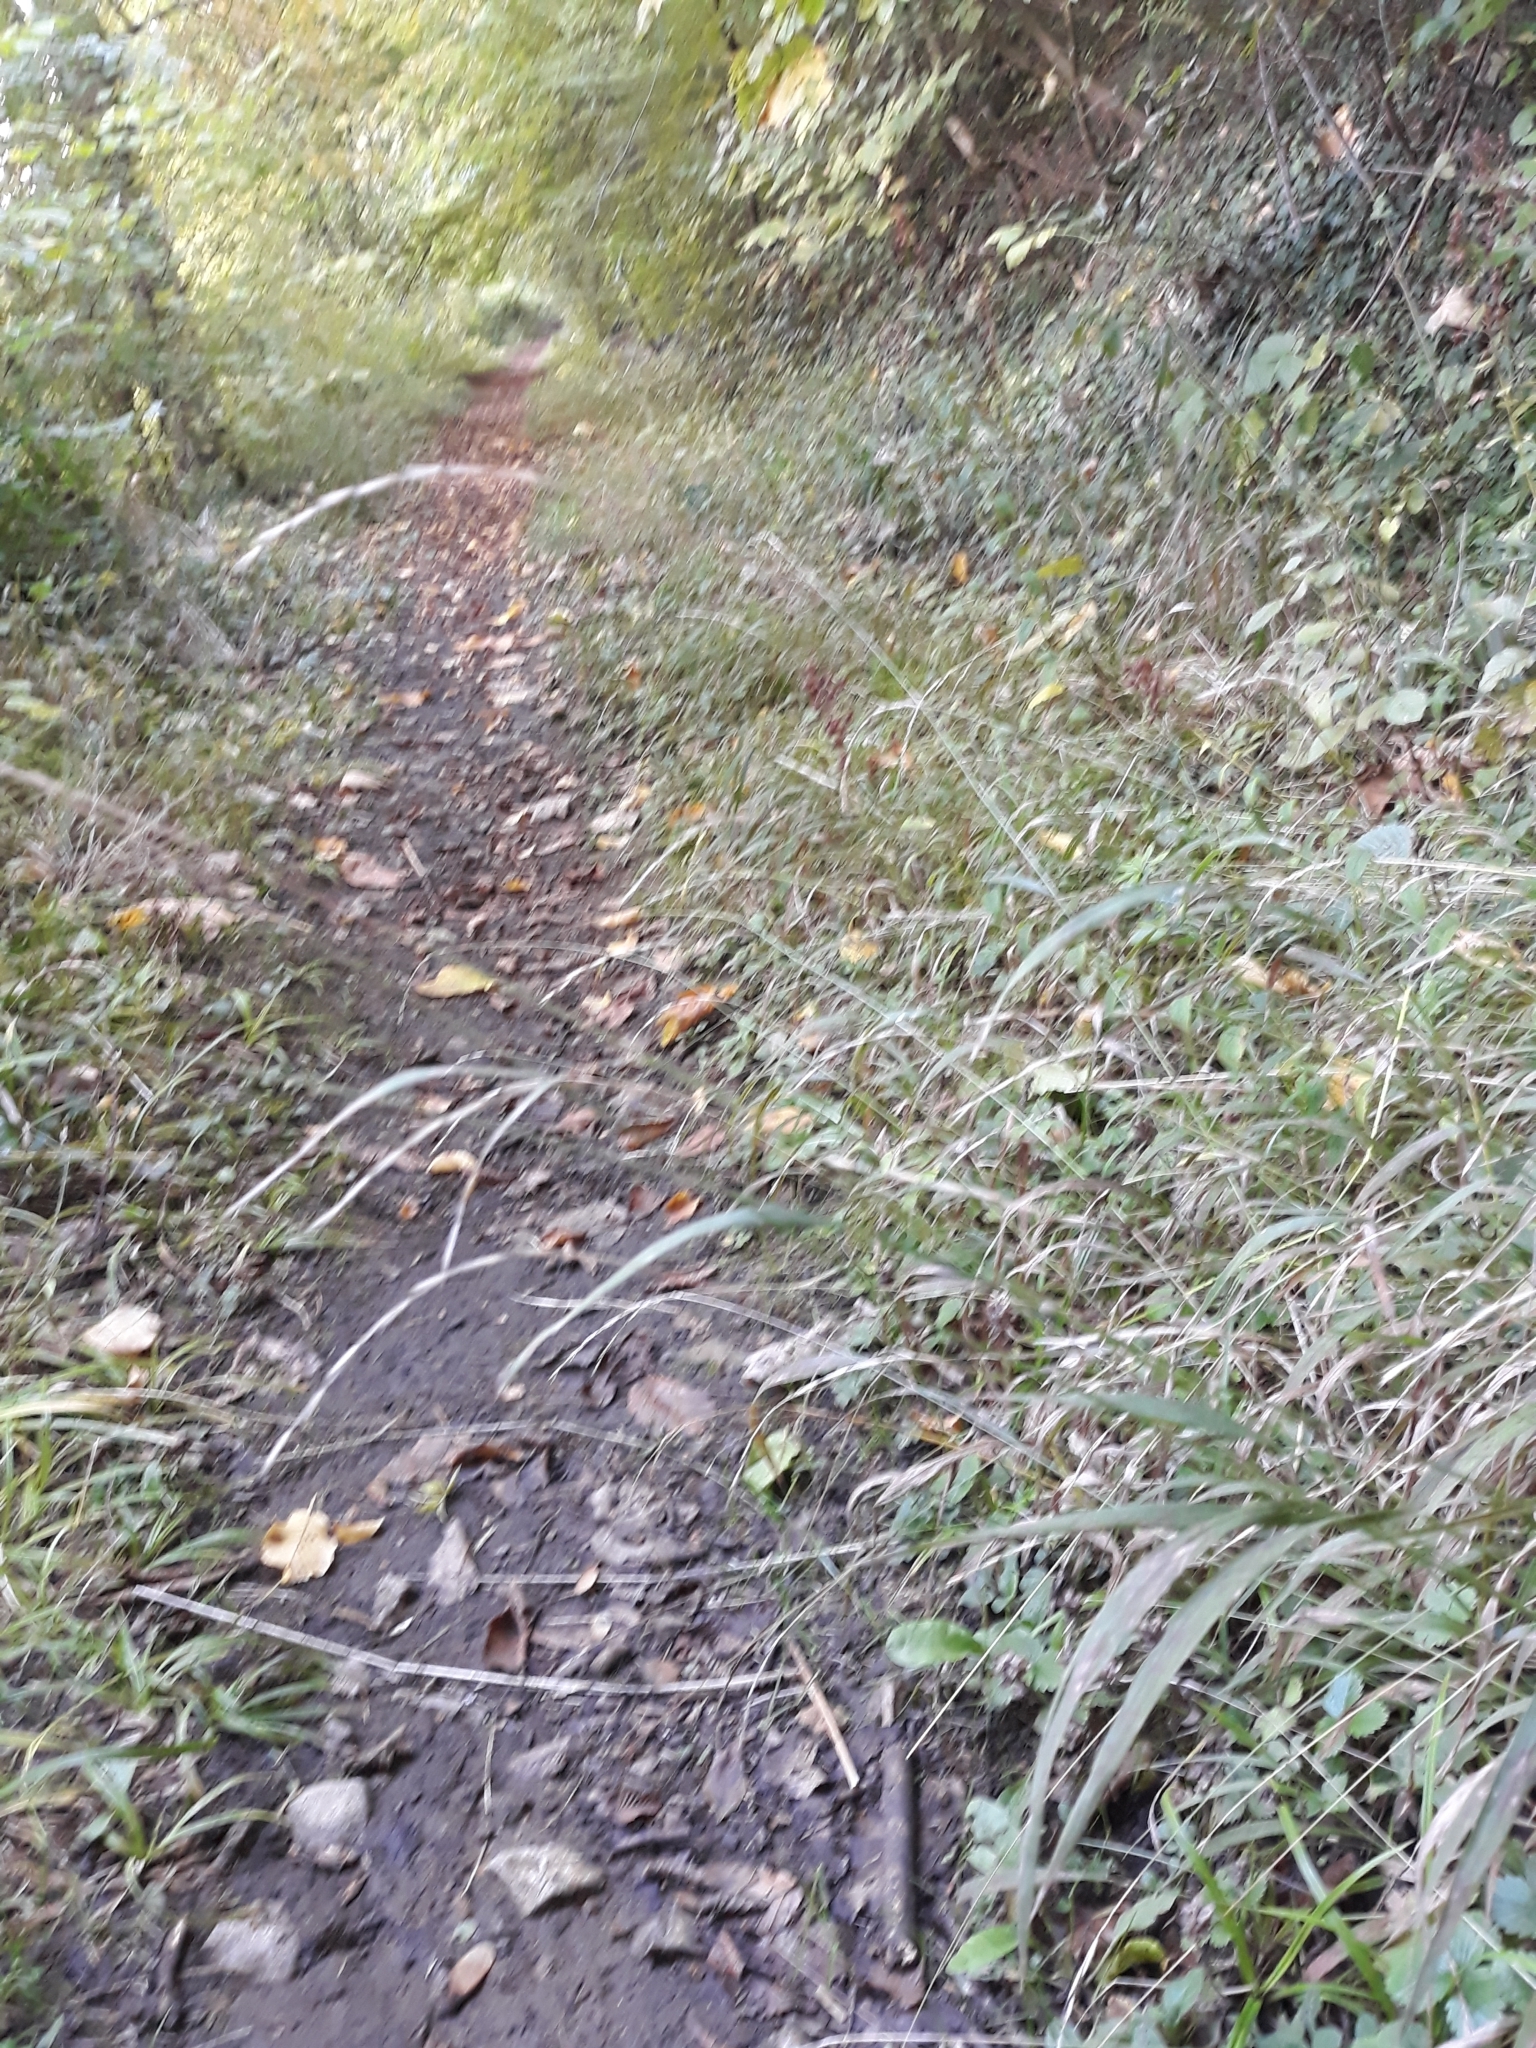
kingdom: Plantae
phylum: Tracheophyta
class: Liliopsida
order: Poales
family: Poaceae
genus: Brachypodium
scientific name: Brachypodium sylvaticum
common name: False-brome
